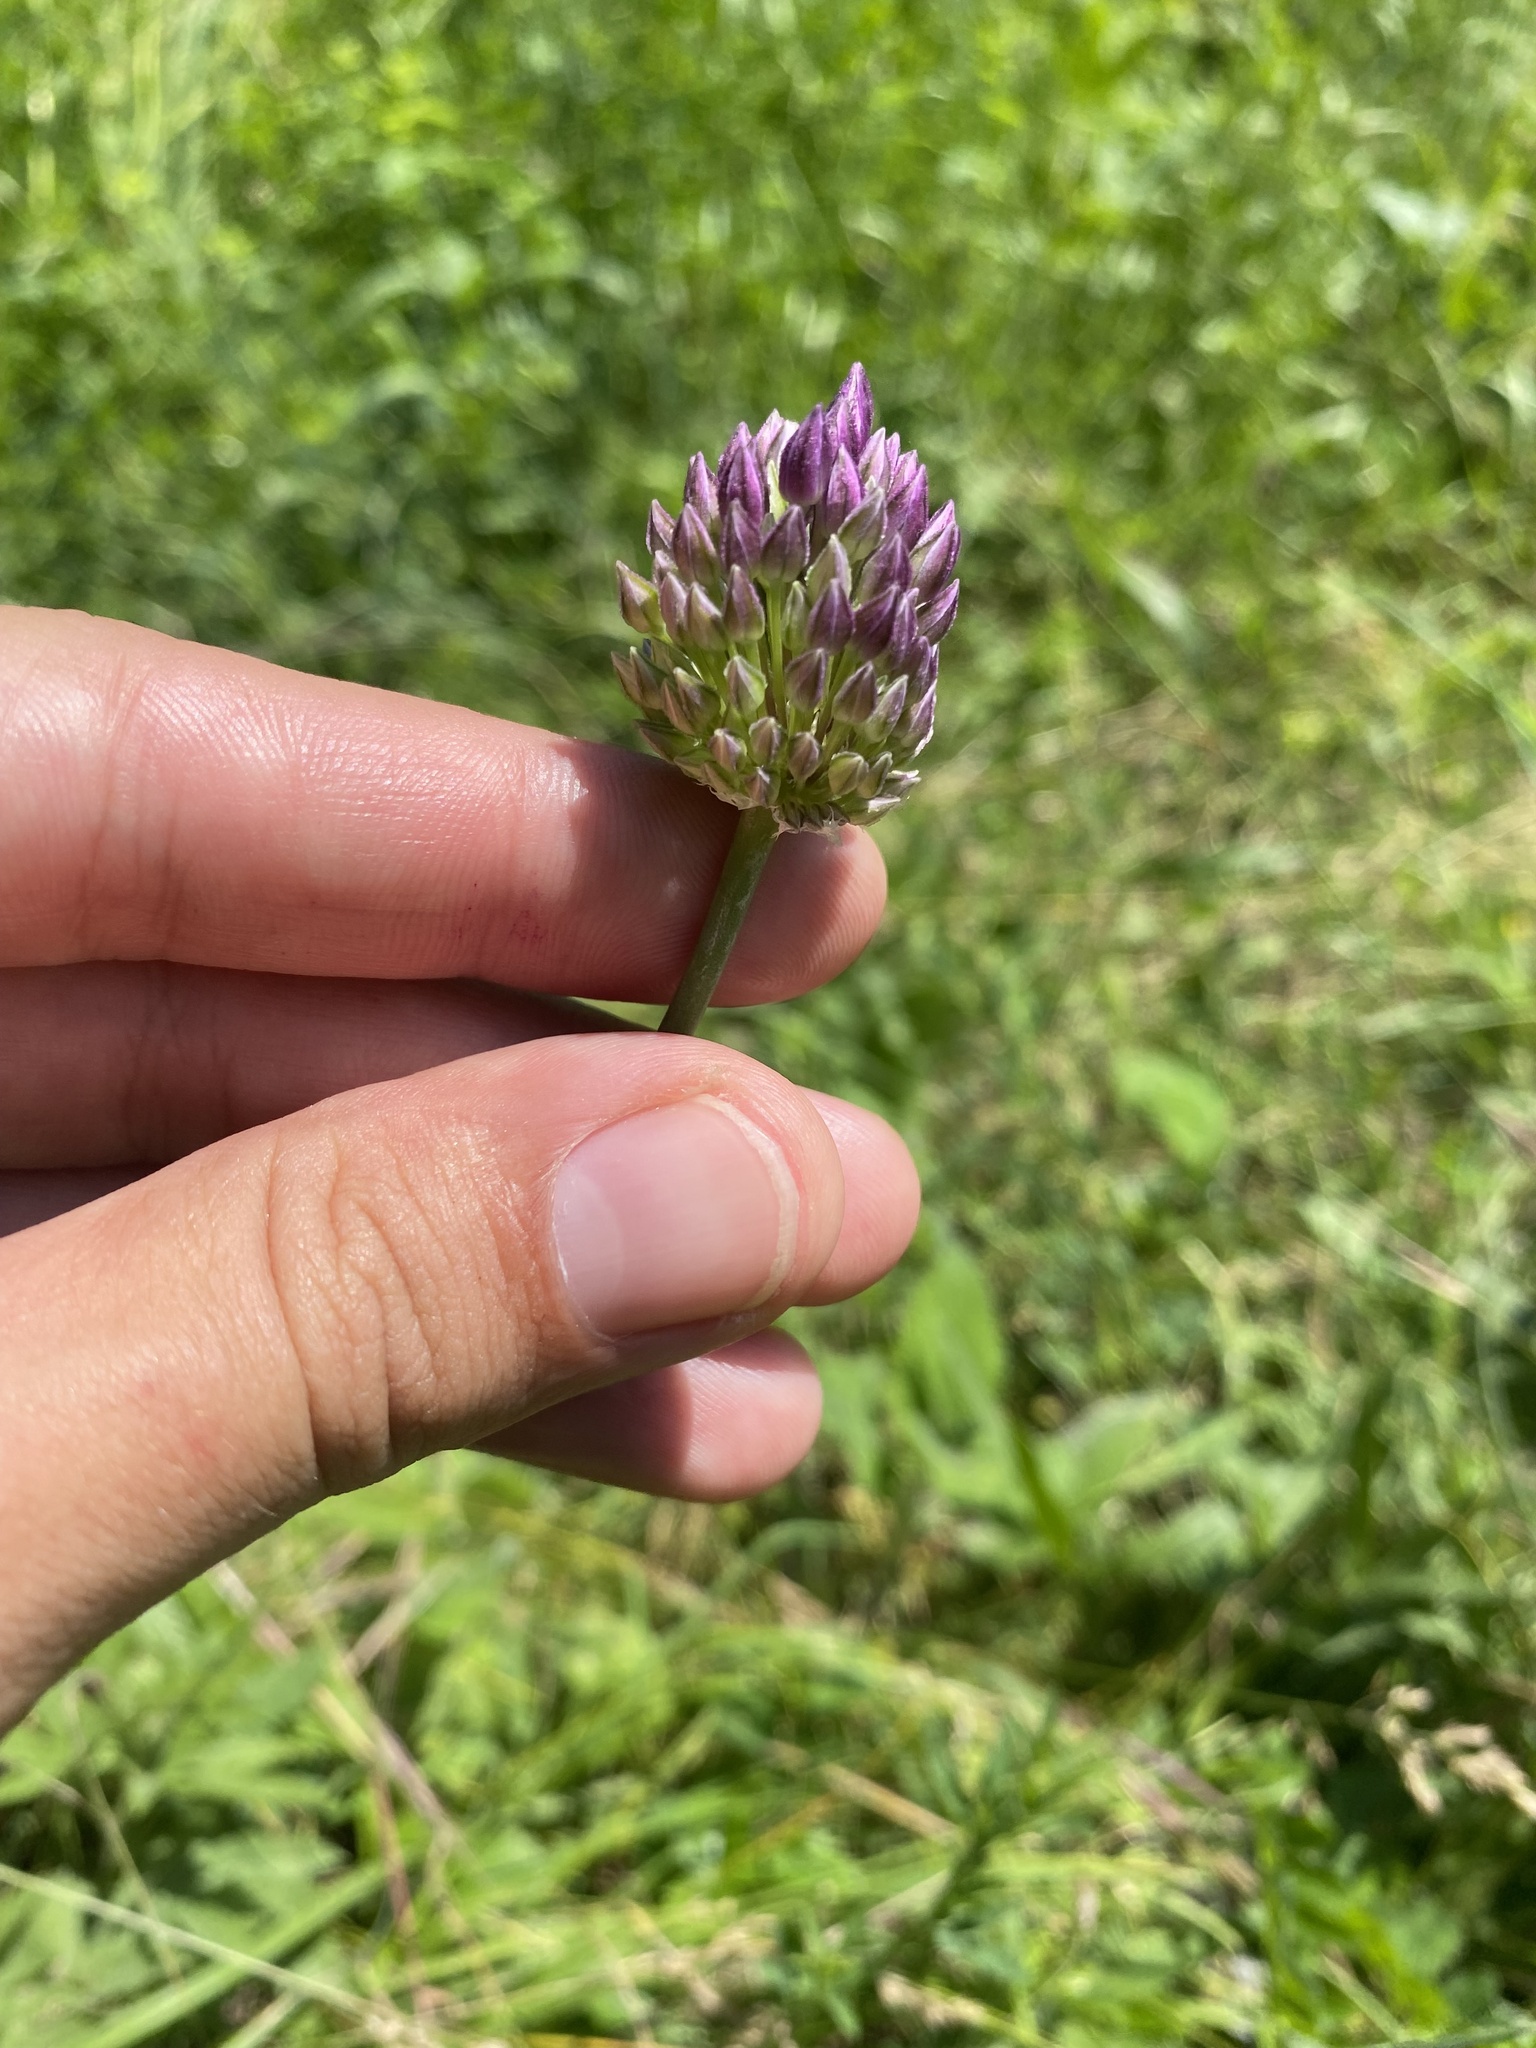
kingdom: Plantae
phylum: Tracheophyta
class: Liliopsida
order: Asparagales
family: Amaryllidaceae
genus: Allium
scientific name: Allium rotundum
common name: Sand leek
